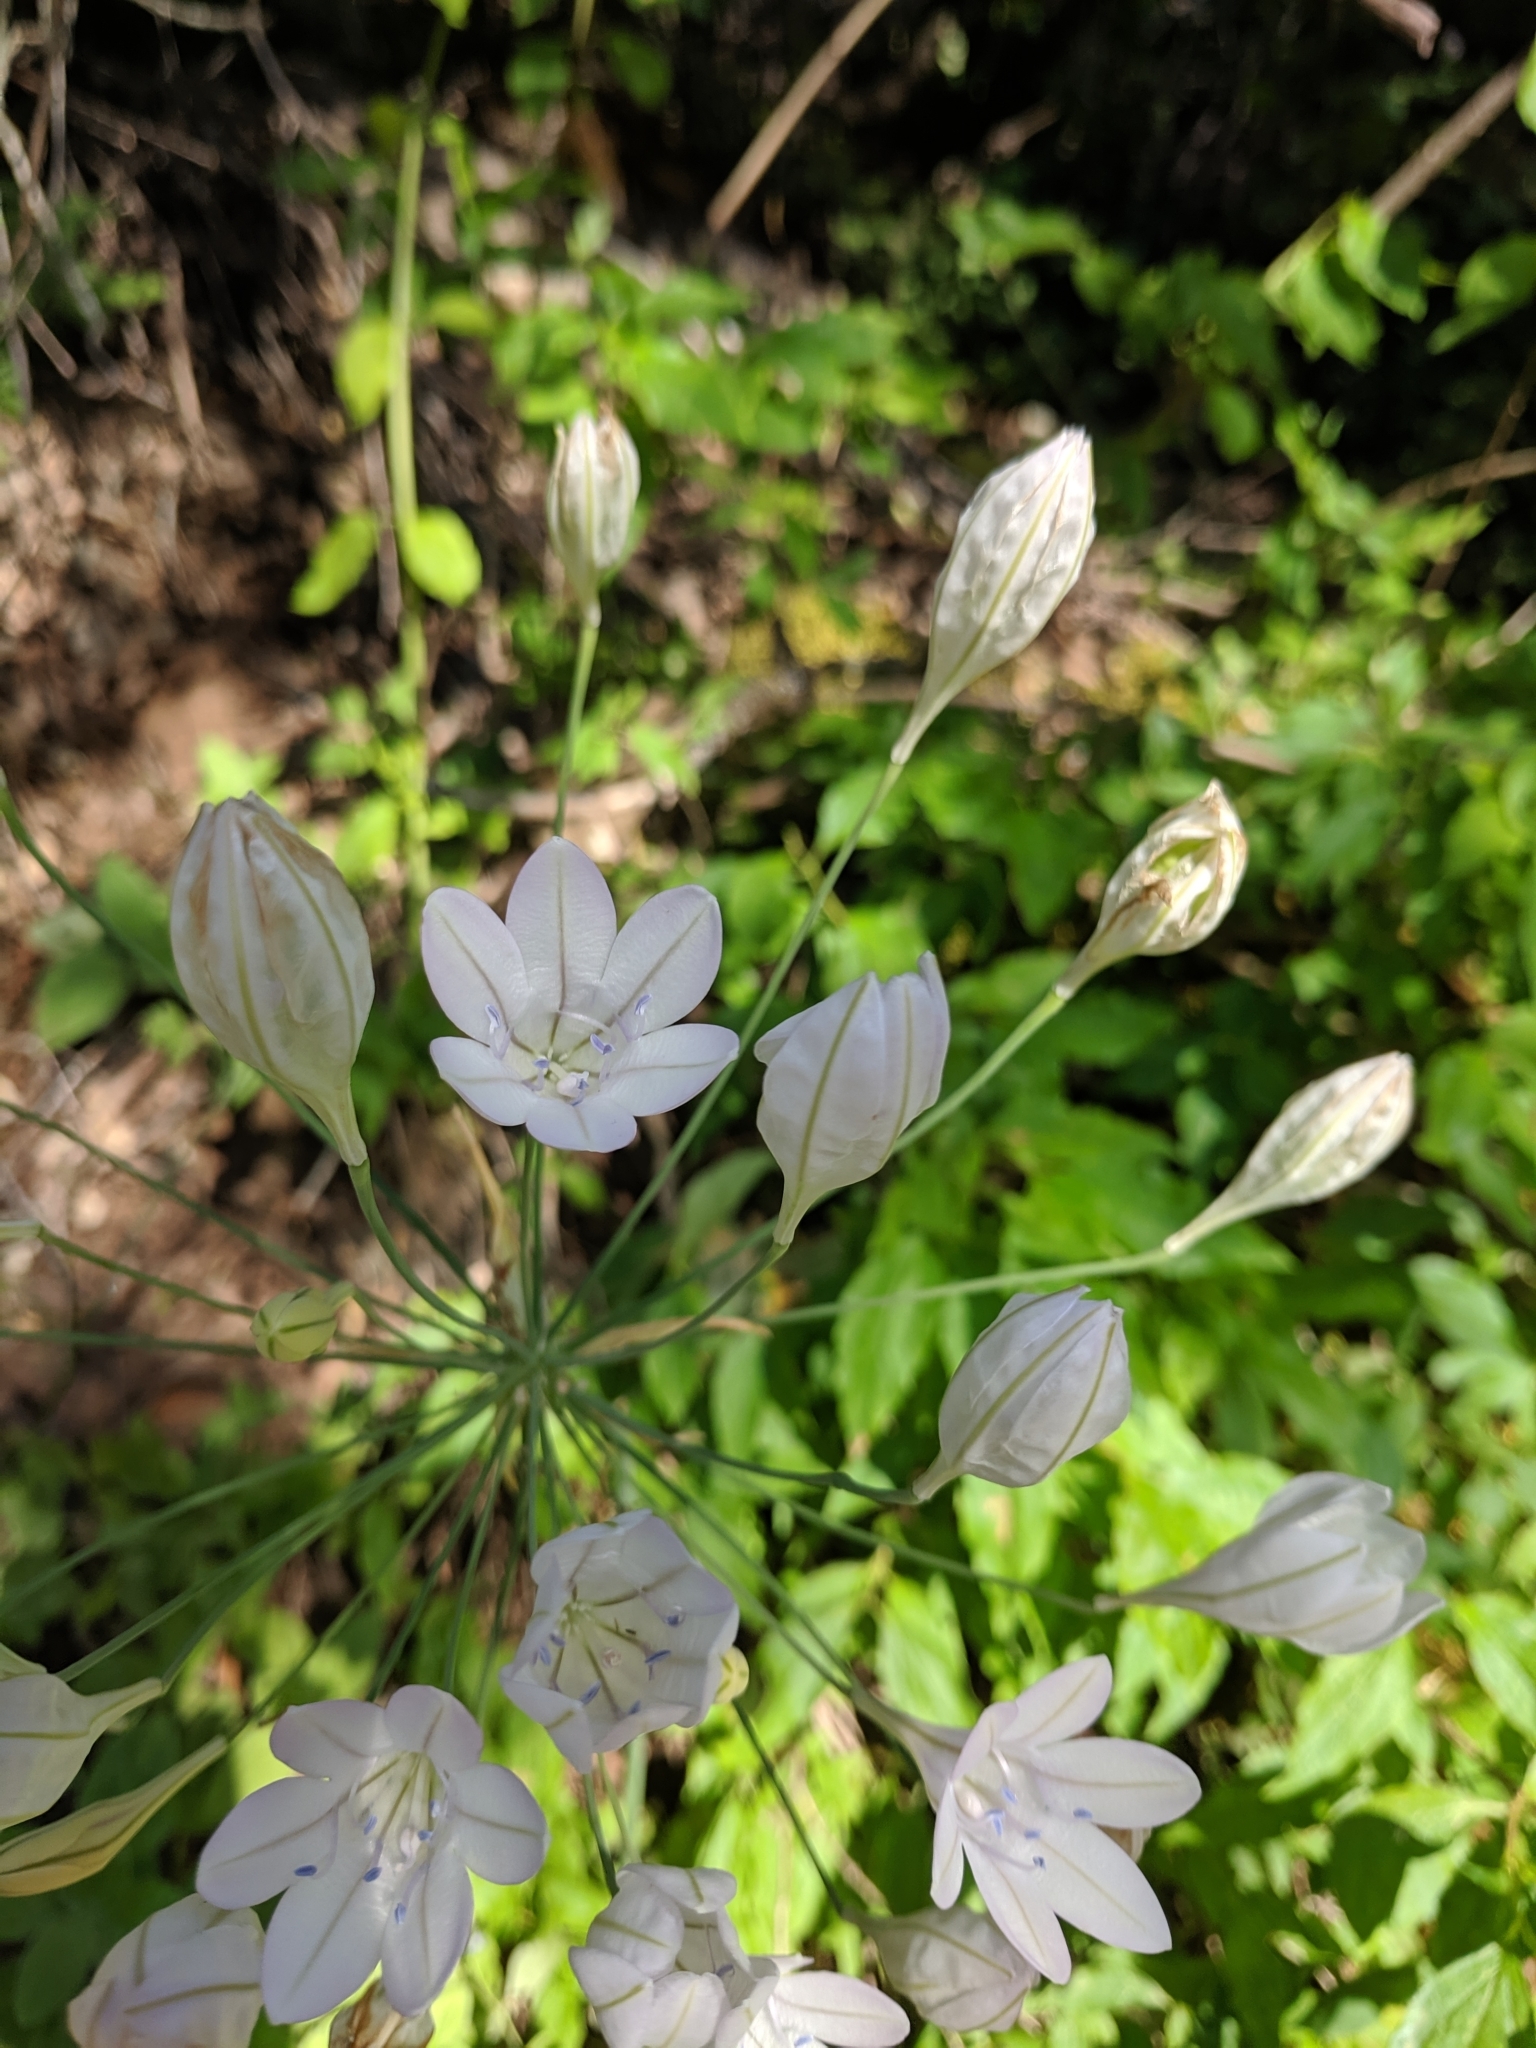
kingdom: Plantae
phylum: Tracheophyta
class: Liliopsida
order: Asparagales
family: Asparagaceae
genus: Triteleia
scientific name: Triteleia laxa
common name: Triplet-lily
